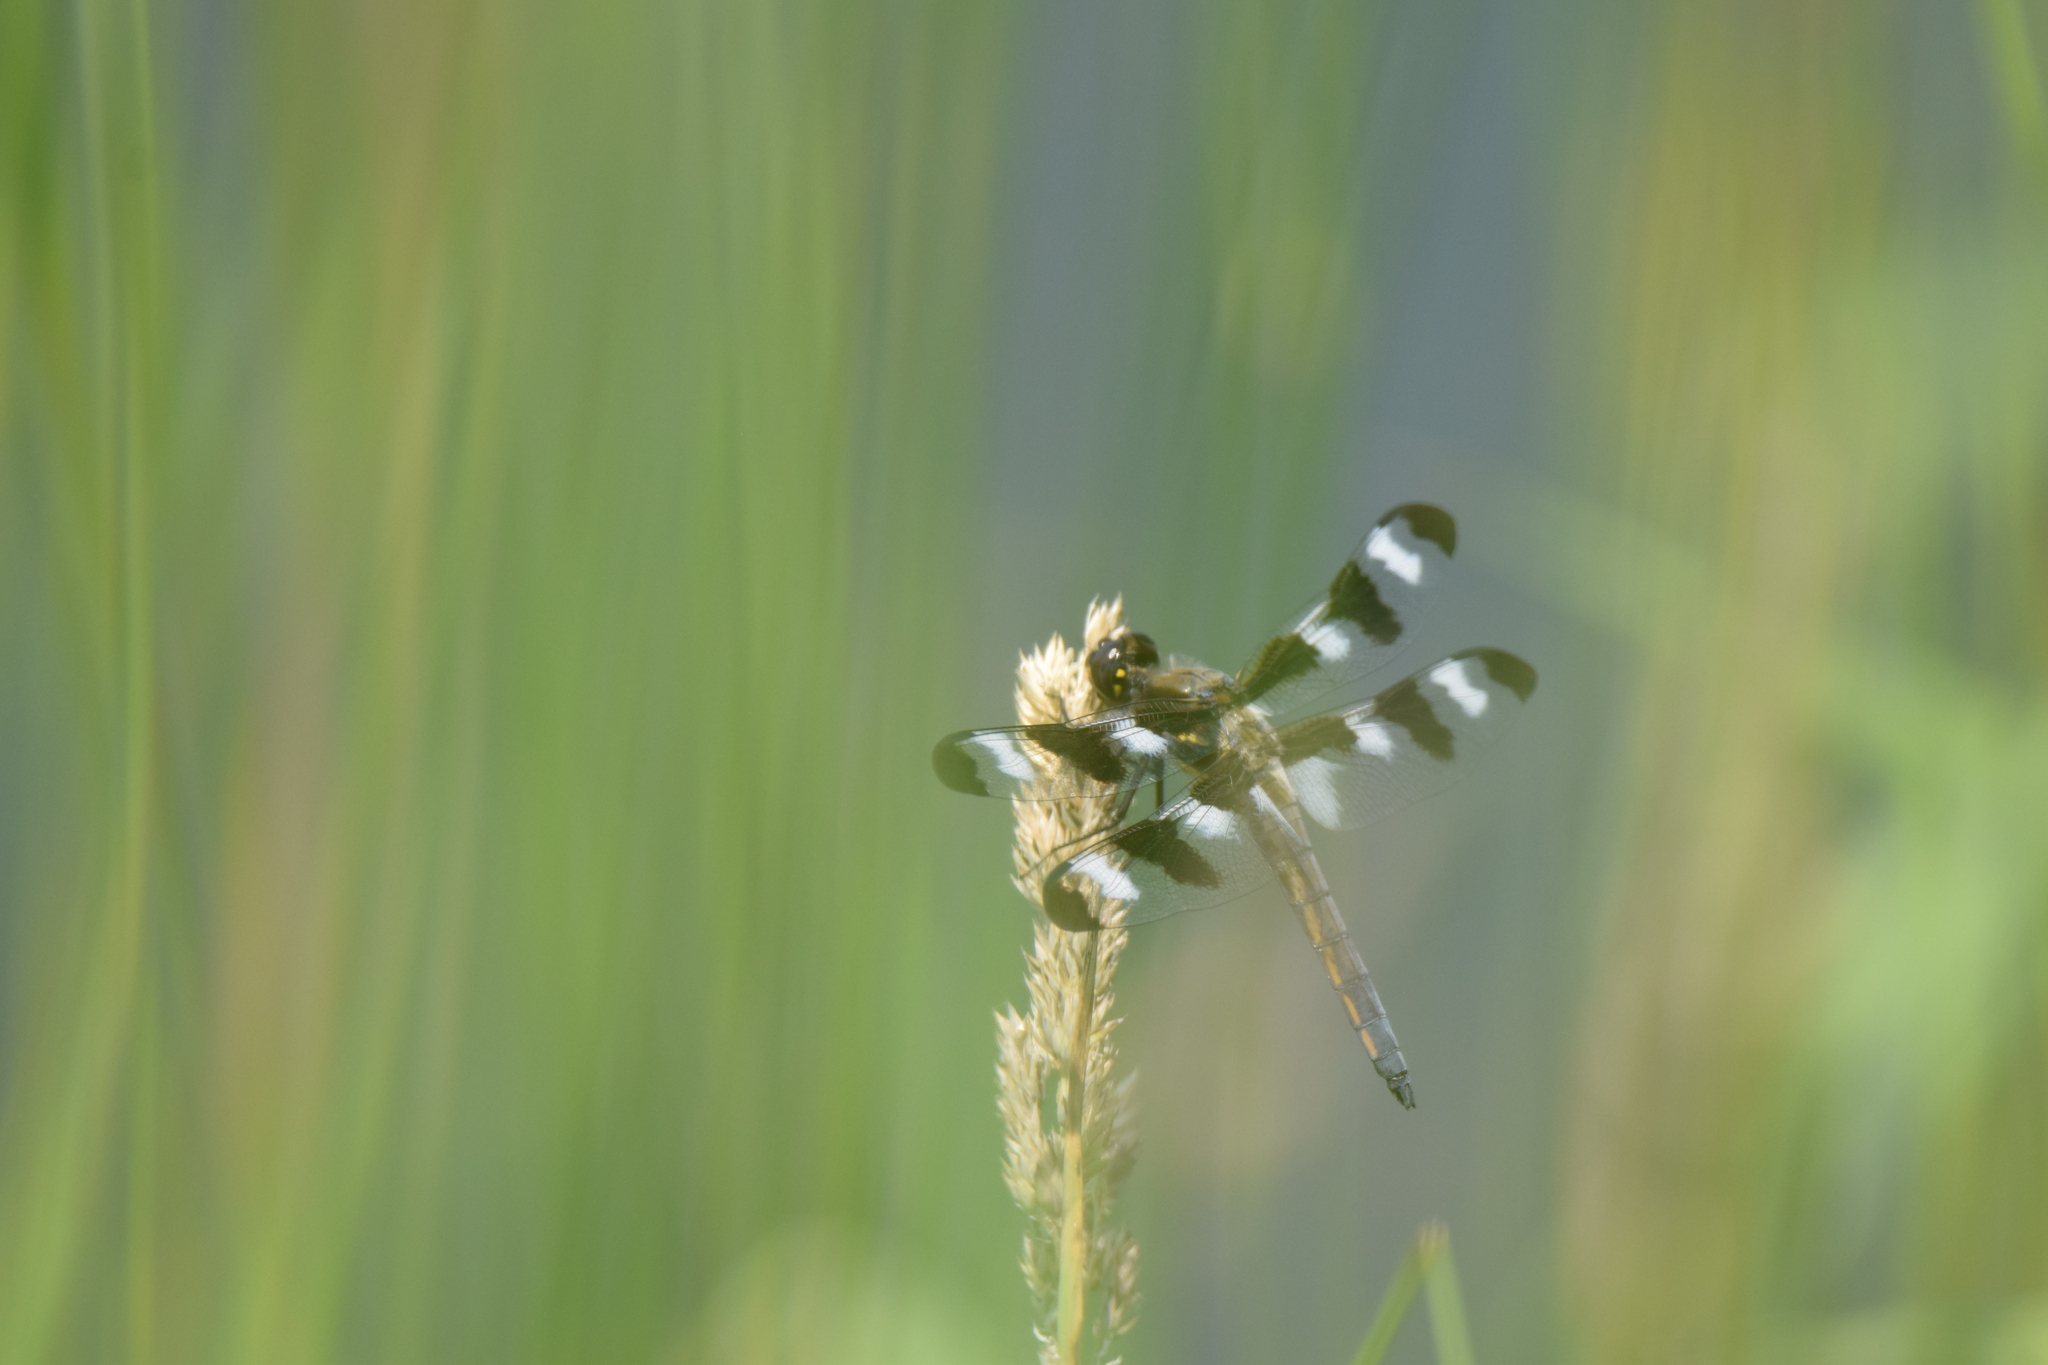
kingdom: Animalia
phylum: Arthropoda
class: Insecta
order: Odonata
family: Libellulidae
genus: Libellula
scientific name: Libellula pulchella
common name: Twelve-spotted skimmer
